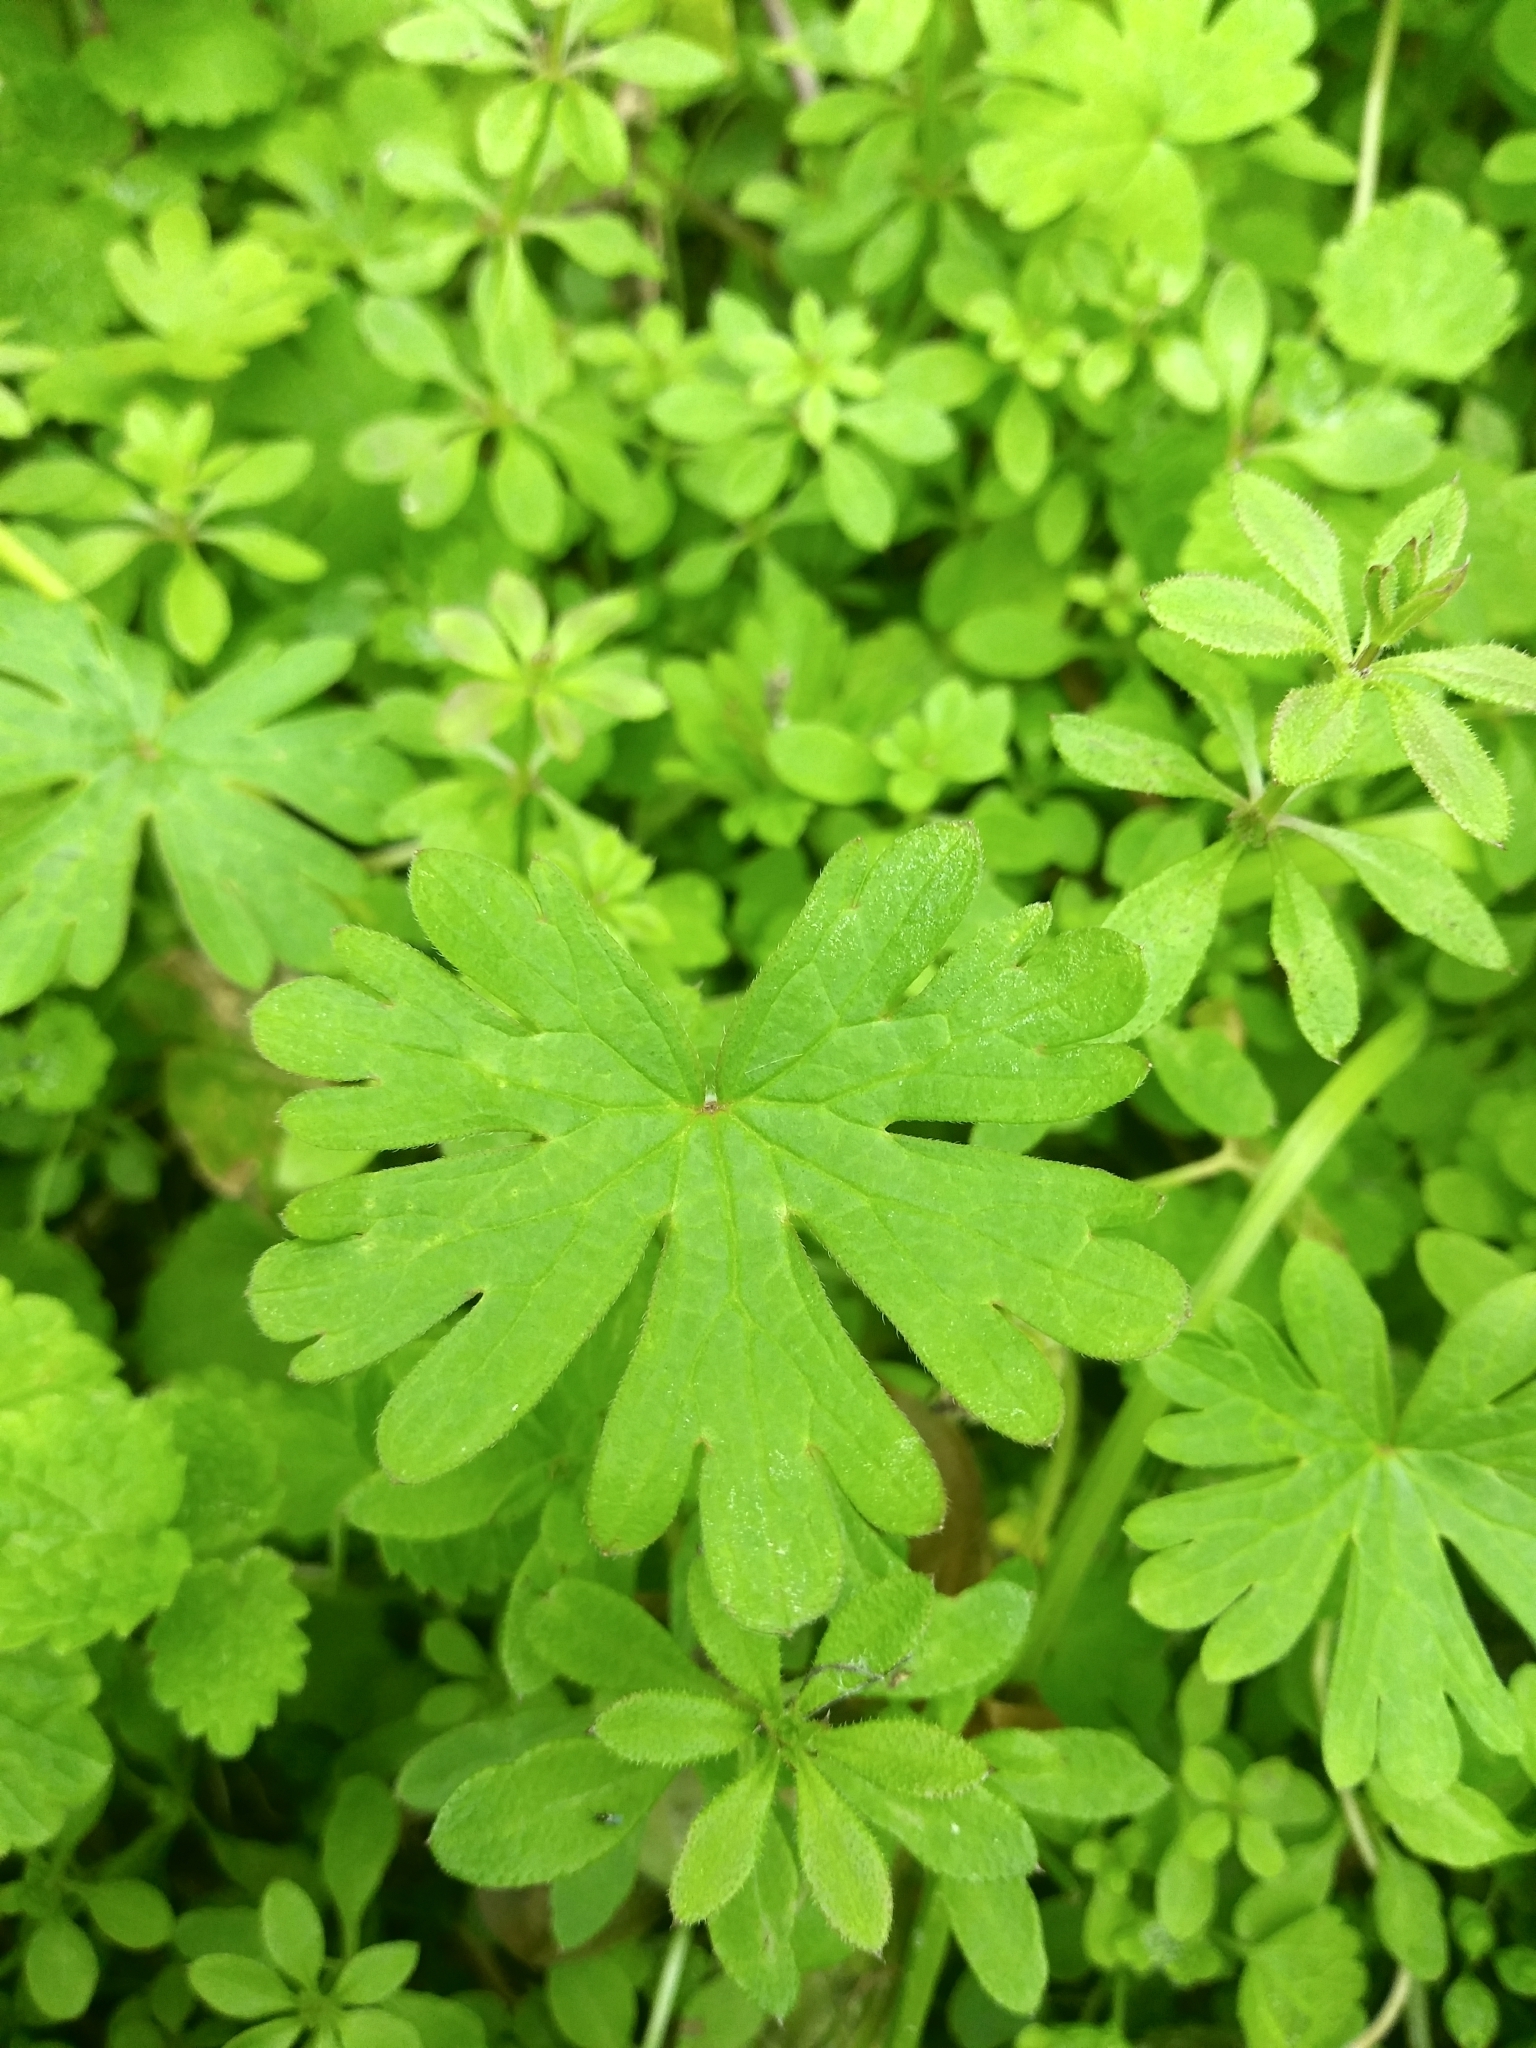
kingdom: Plantae
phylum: Tracheophyta
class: Magnoliopsida
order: Geraniales
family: Geraniaceae
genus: Geranium
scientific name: Geranium carolinianum
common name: Carolina crane's-bill
